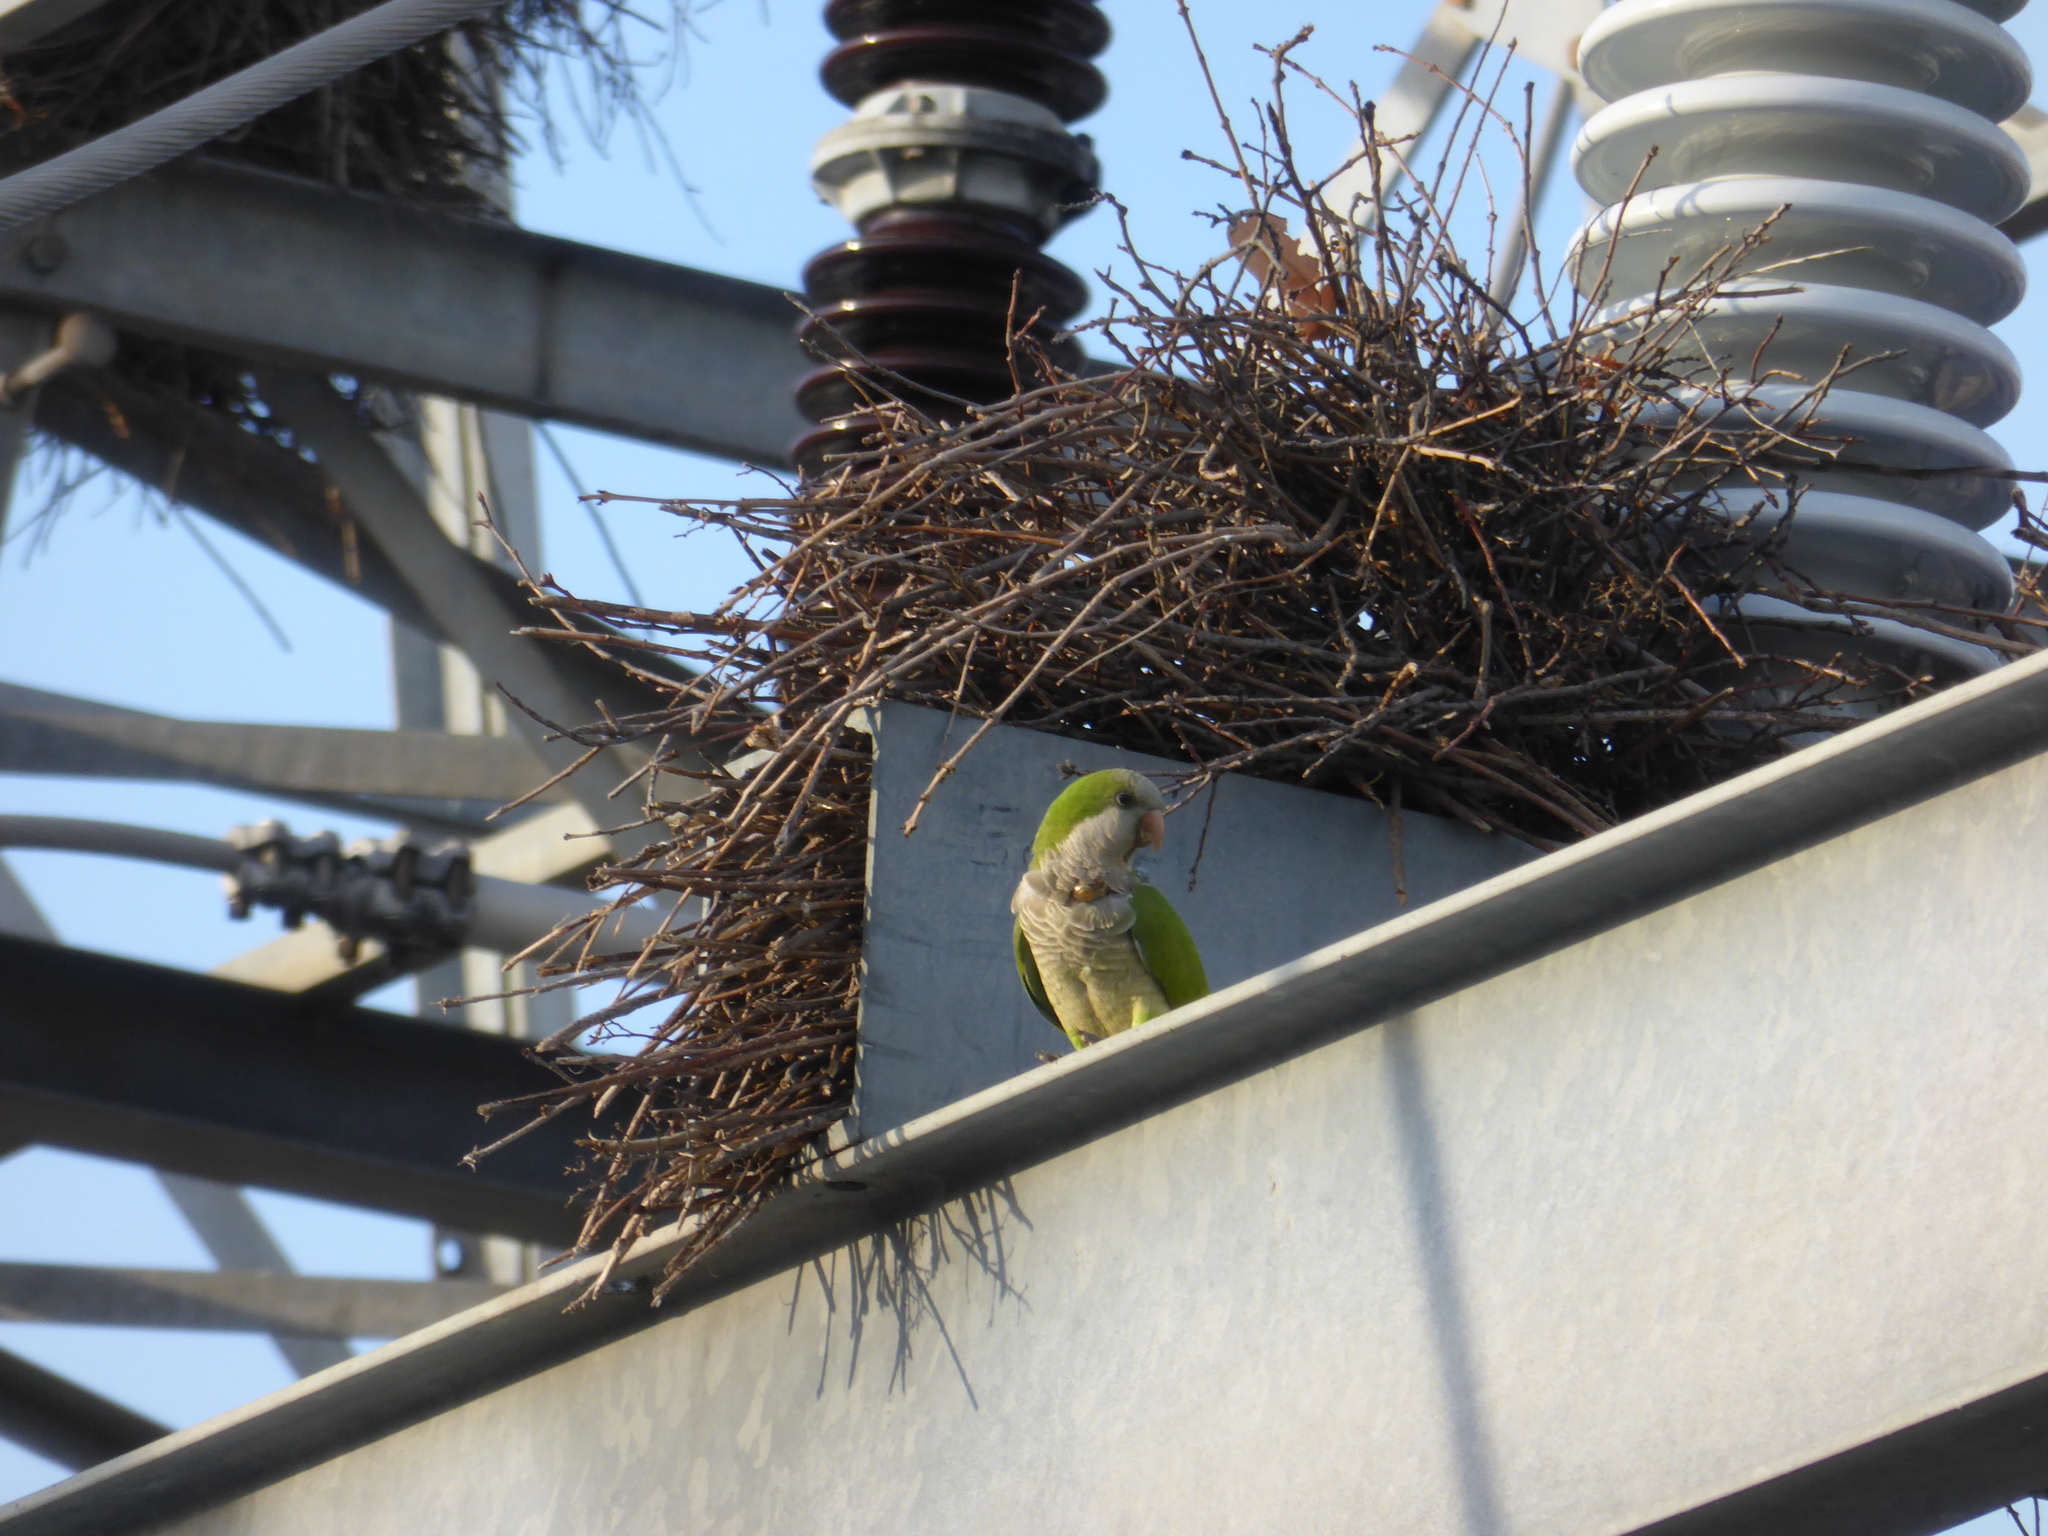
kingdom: Animalia
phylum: Chordata
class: Aves
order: Psittaciformes
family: Psittacidae
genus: Myiopsitta
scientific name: Myiopsitta monachus
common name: Monk parakeet
